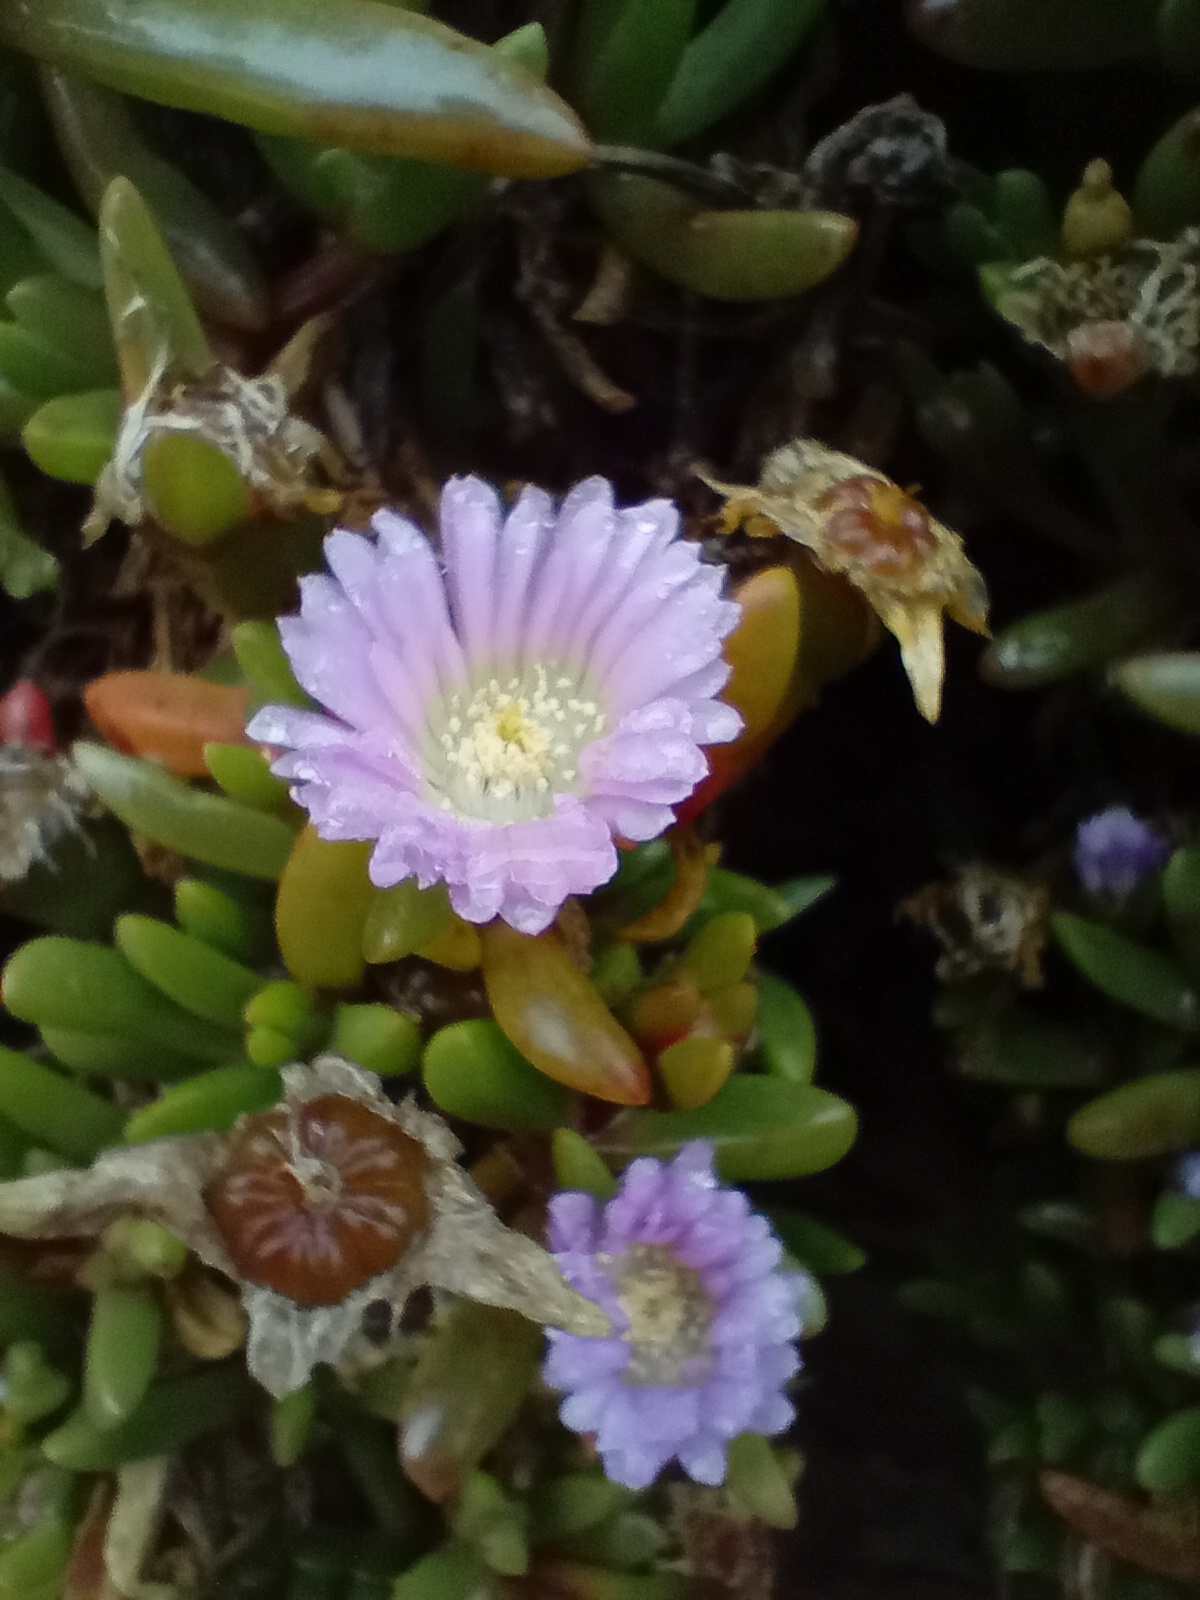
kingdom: Plantae
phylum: Tracheophyta
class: Magnoliopsida
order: Caryophyllales
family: Aizoaceae
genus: Disphyma
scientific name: Disphyma australe
